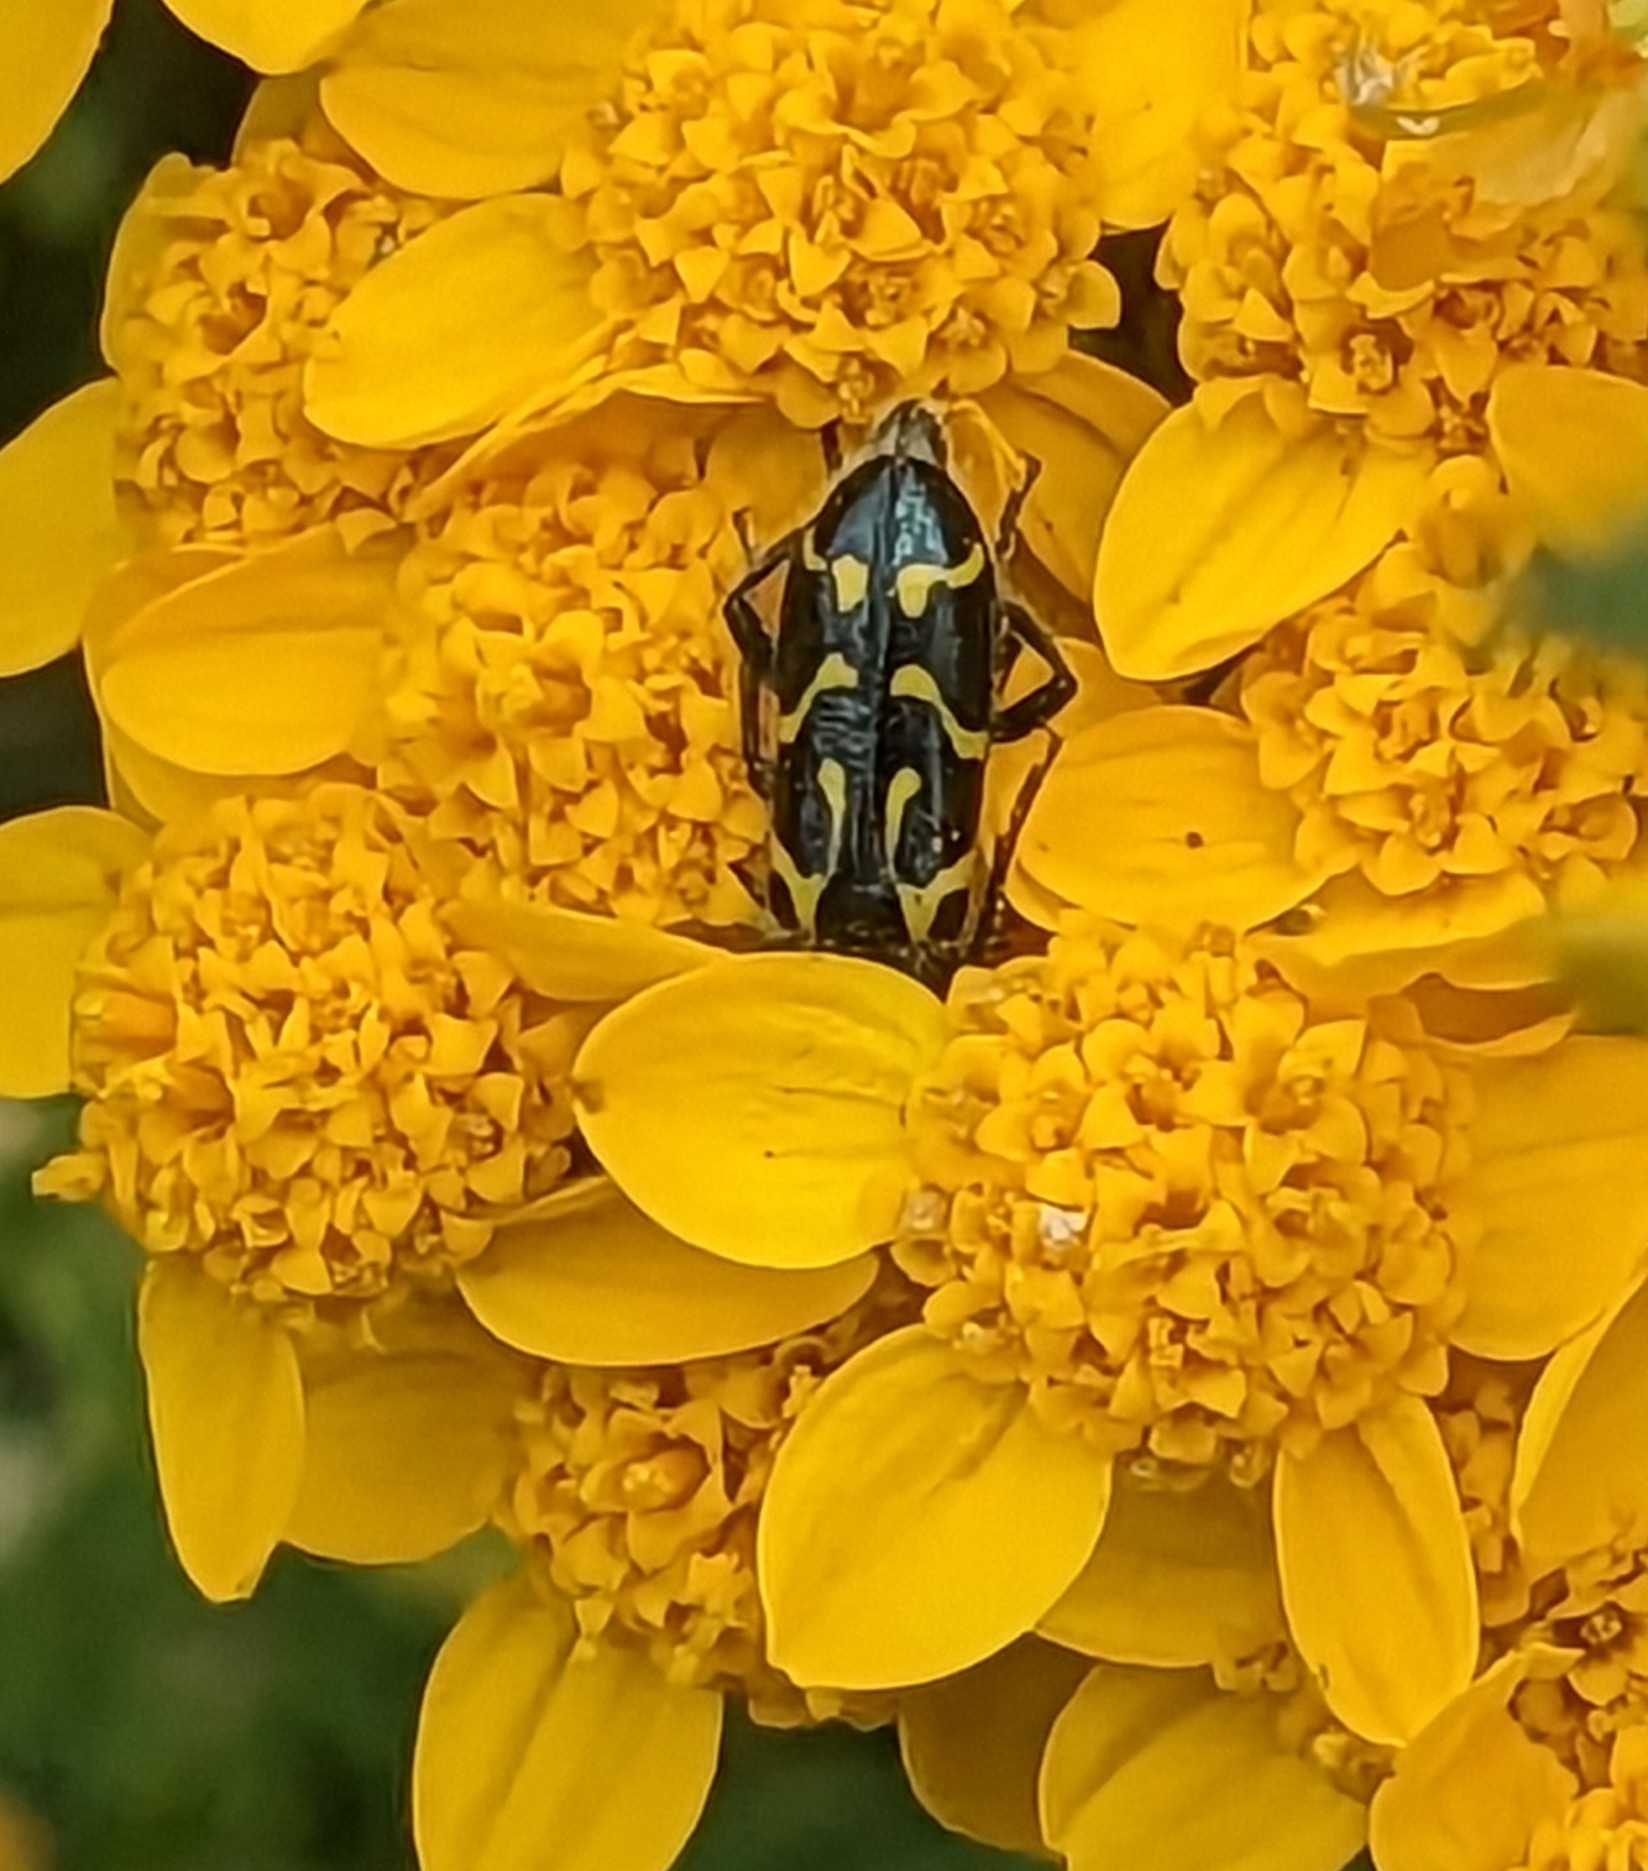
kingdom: Animalia
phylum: Arthropoda
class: Insecta
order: Coleoptera
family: Cleridae
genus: Trichodes
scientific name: Trichodes ornatus
